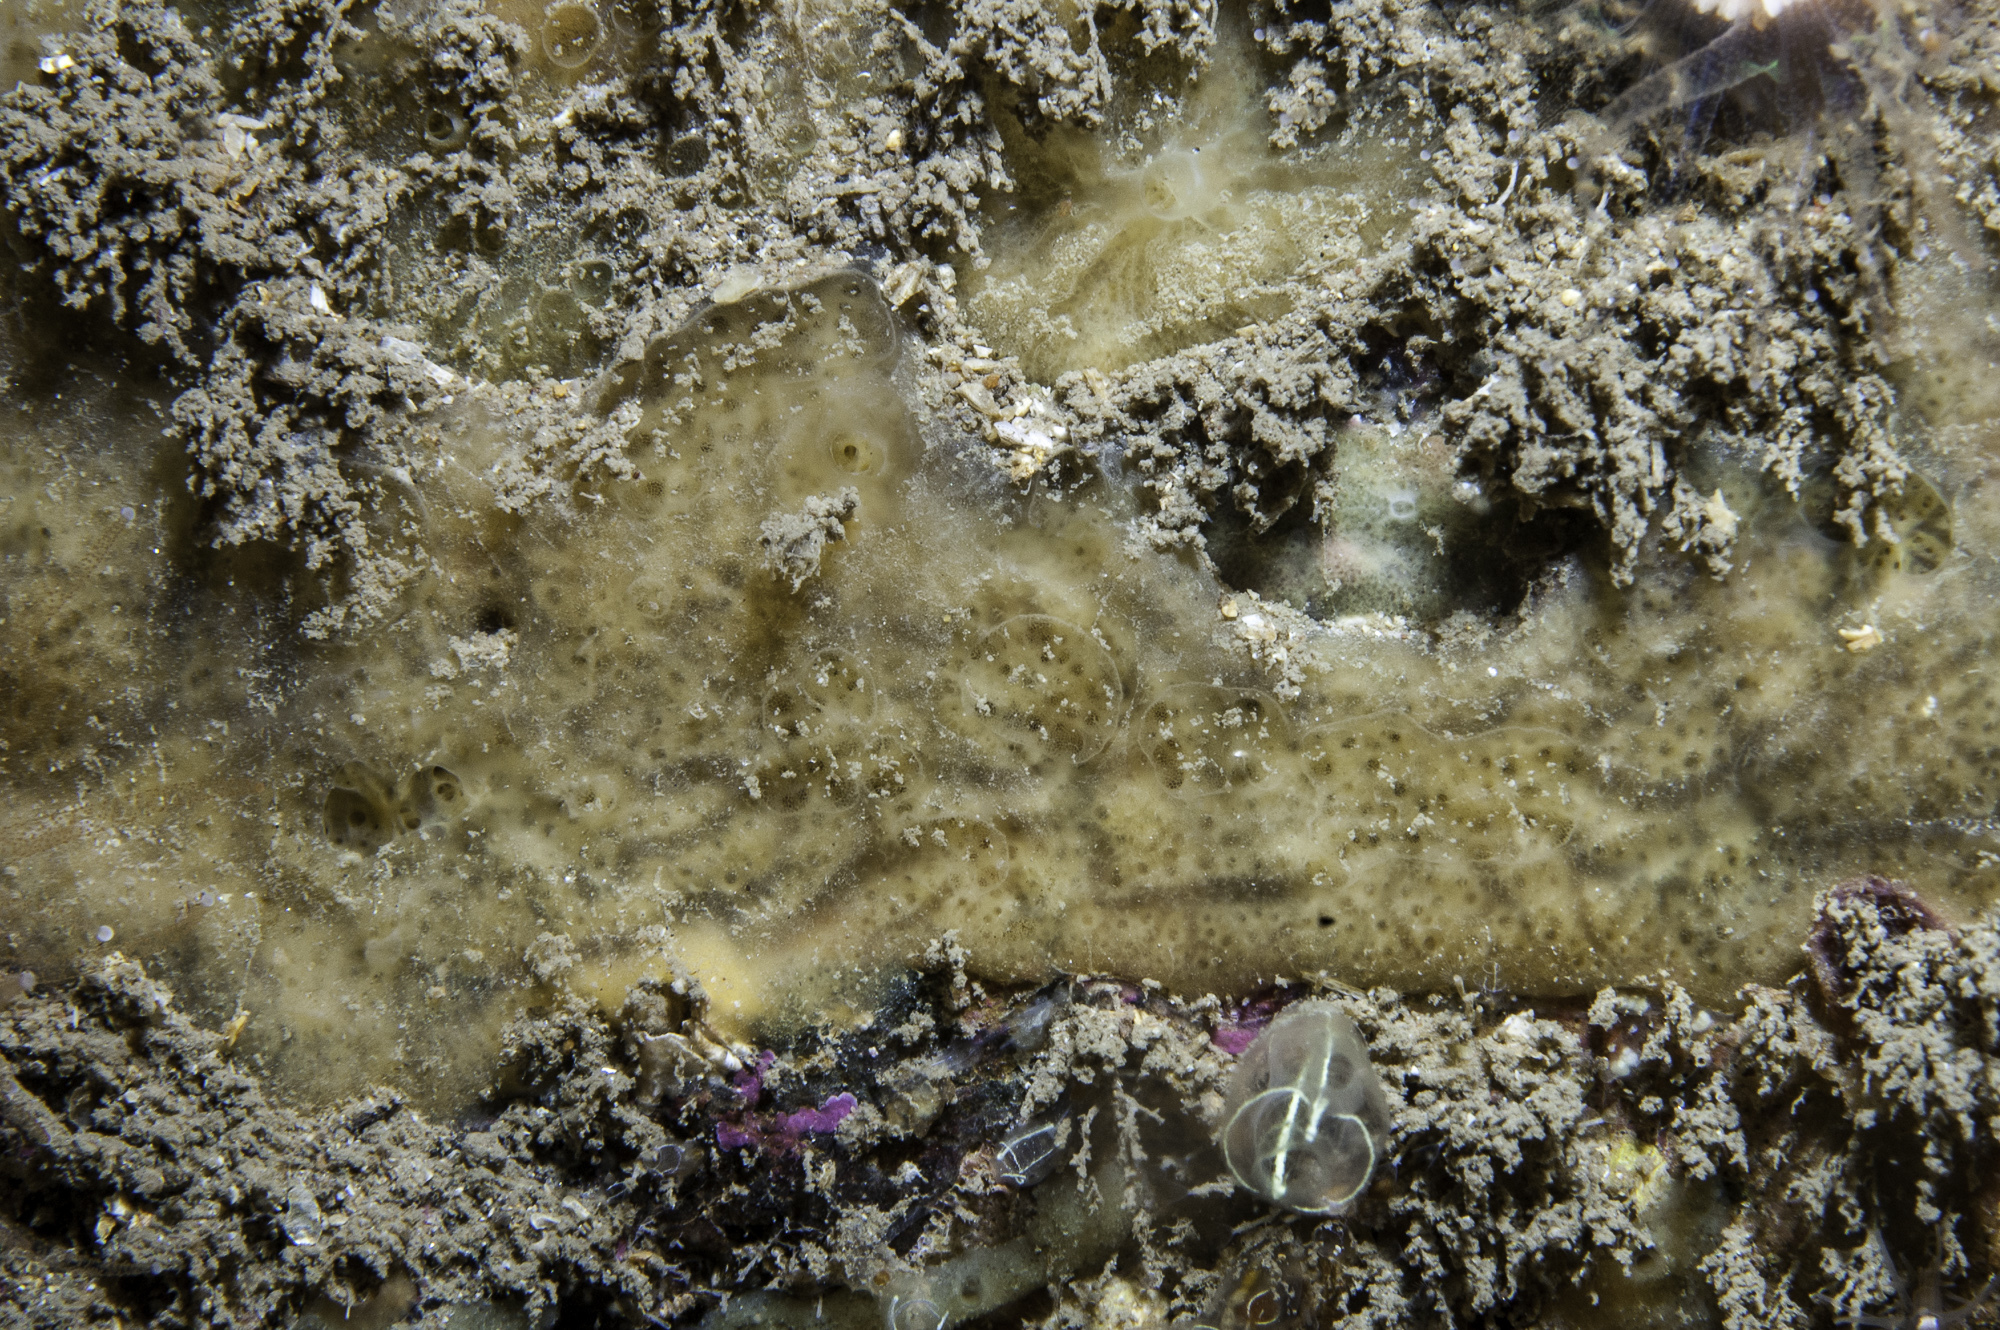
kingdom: Animalia
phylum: Porifera
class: Demospongiae
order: Poecilosclerida
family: Hymedesmiidae
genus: Hymedesmia
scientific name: Hymedesmia coriacea
